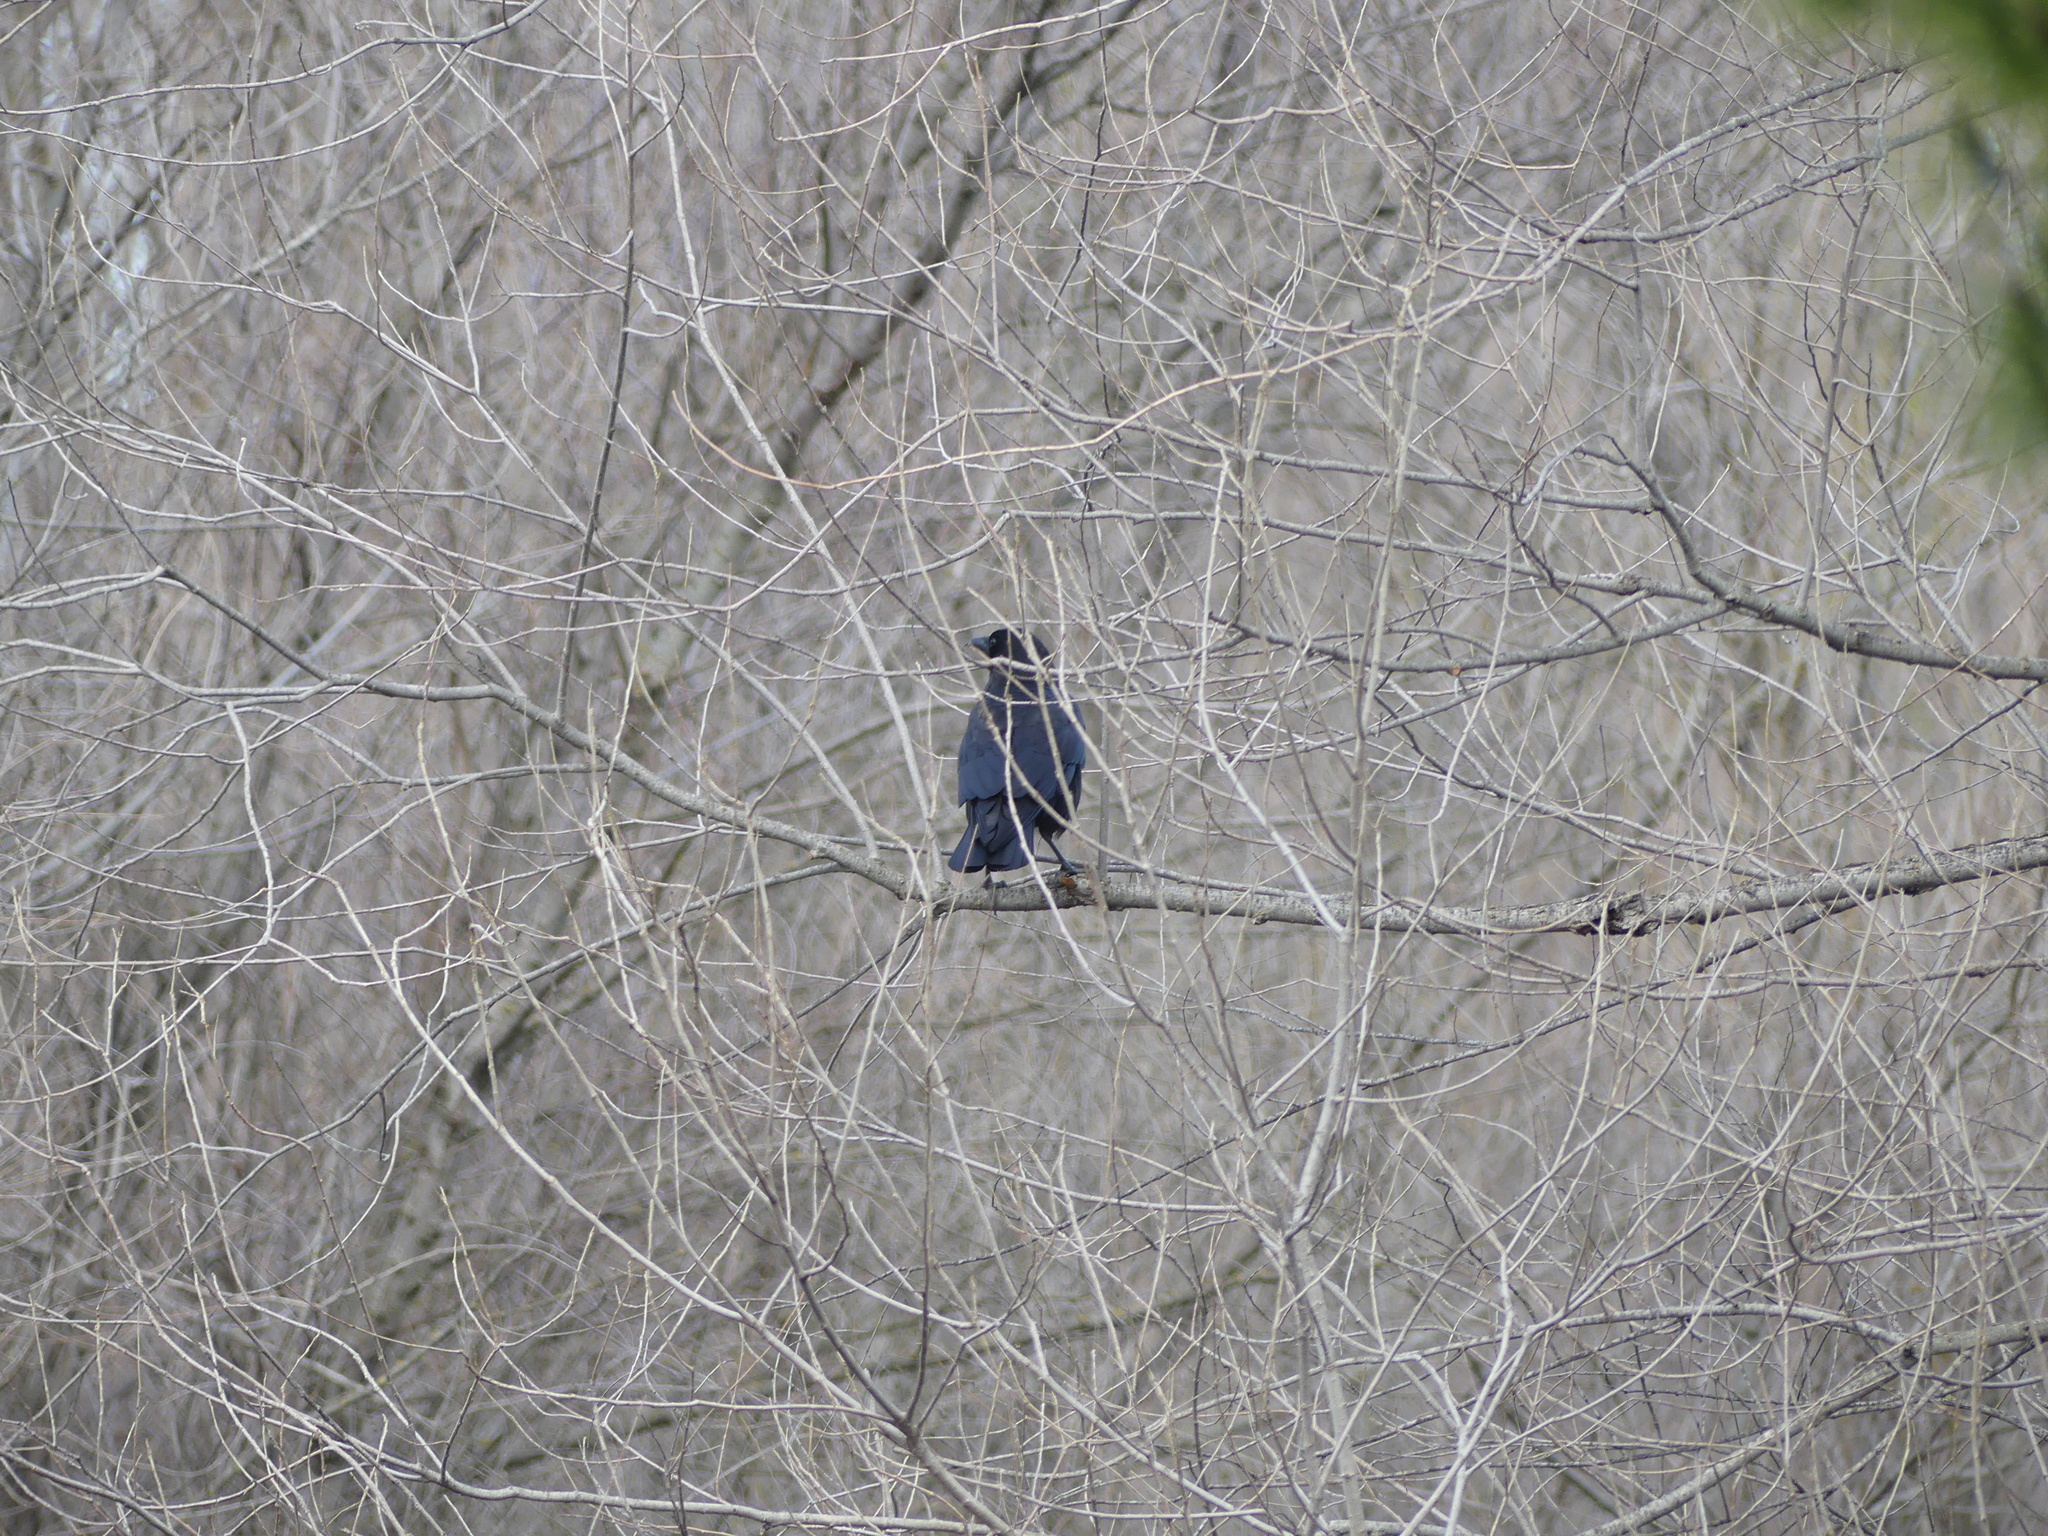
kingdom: Animalia
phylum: Chordata
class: Aves
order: Passeriformes
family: Corvidae
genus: Corvus
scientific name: Corvus brachyrhynchos
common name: American crow
